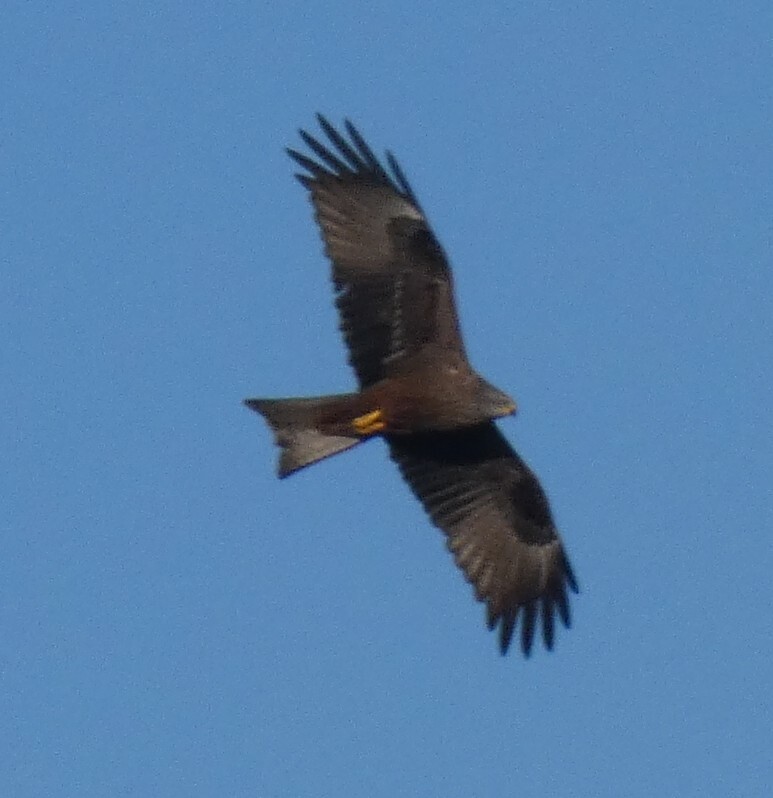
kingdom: Animalia
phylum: Chordata
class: Aves
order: Accipitriformes
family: Accipitridae
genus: Milvus
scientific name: Milvus migrans
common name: Black kite
